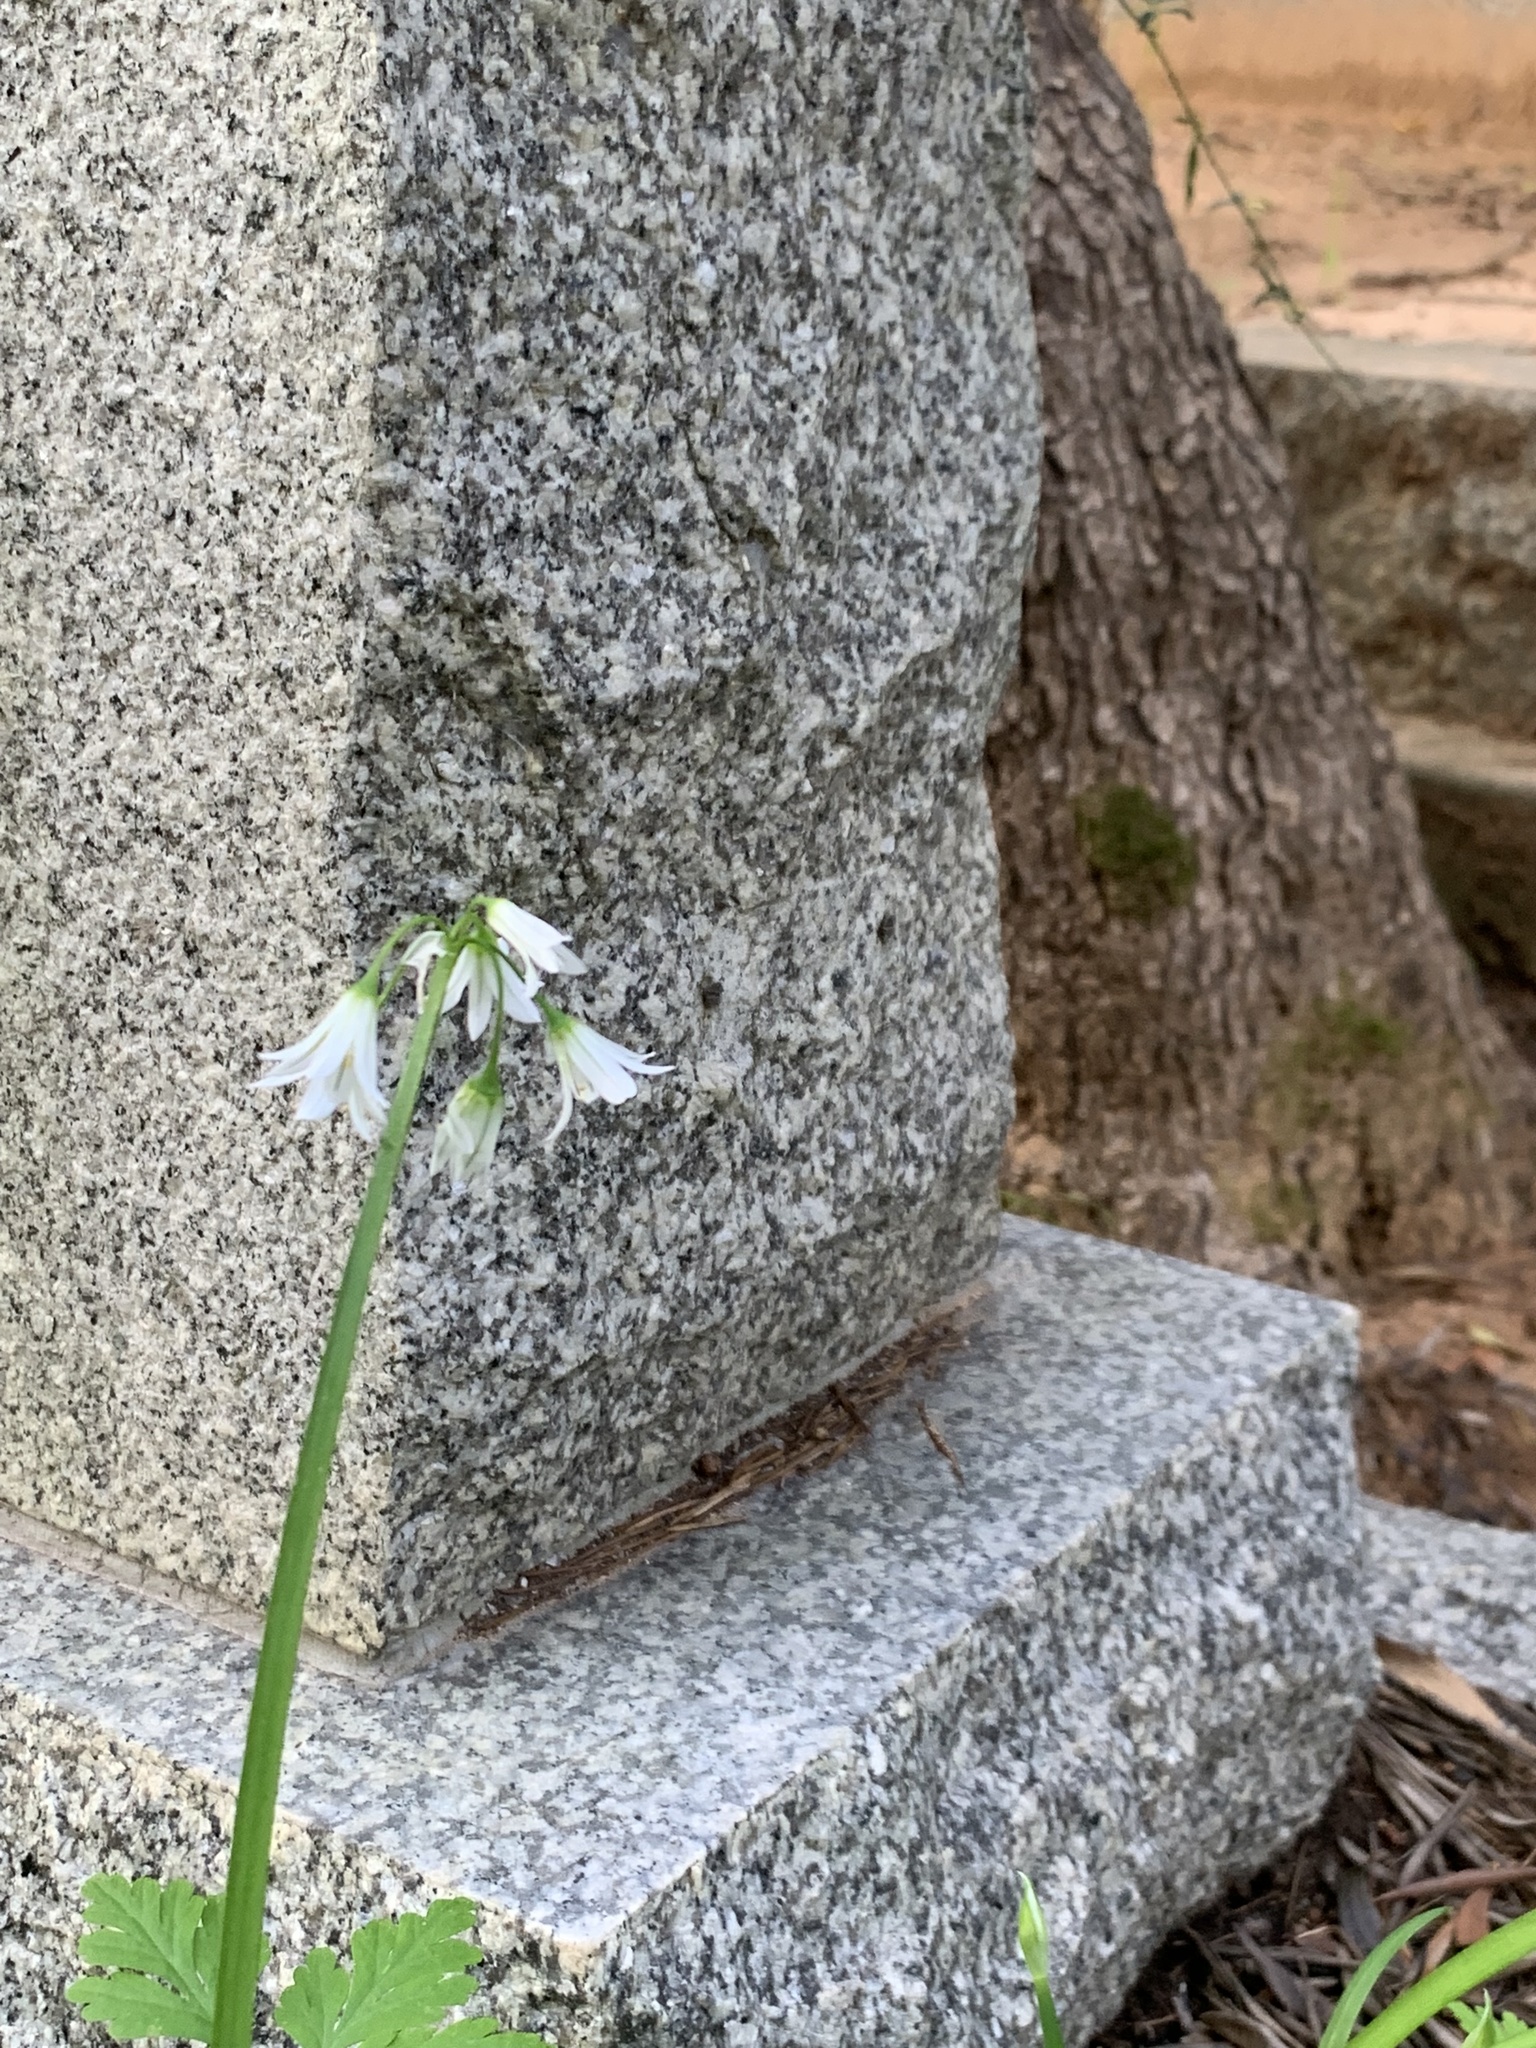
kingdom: Plantae
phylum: Tracheophyta
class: Liliopsida
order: Asparagales
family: Amaryllidaceae
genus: Allium
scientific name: Allium triquetrum
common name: Three-cornered garlic
